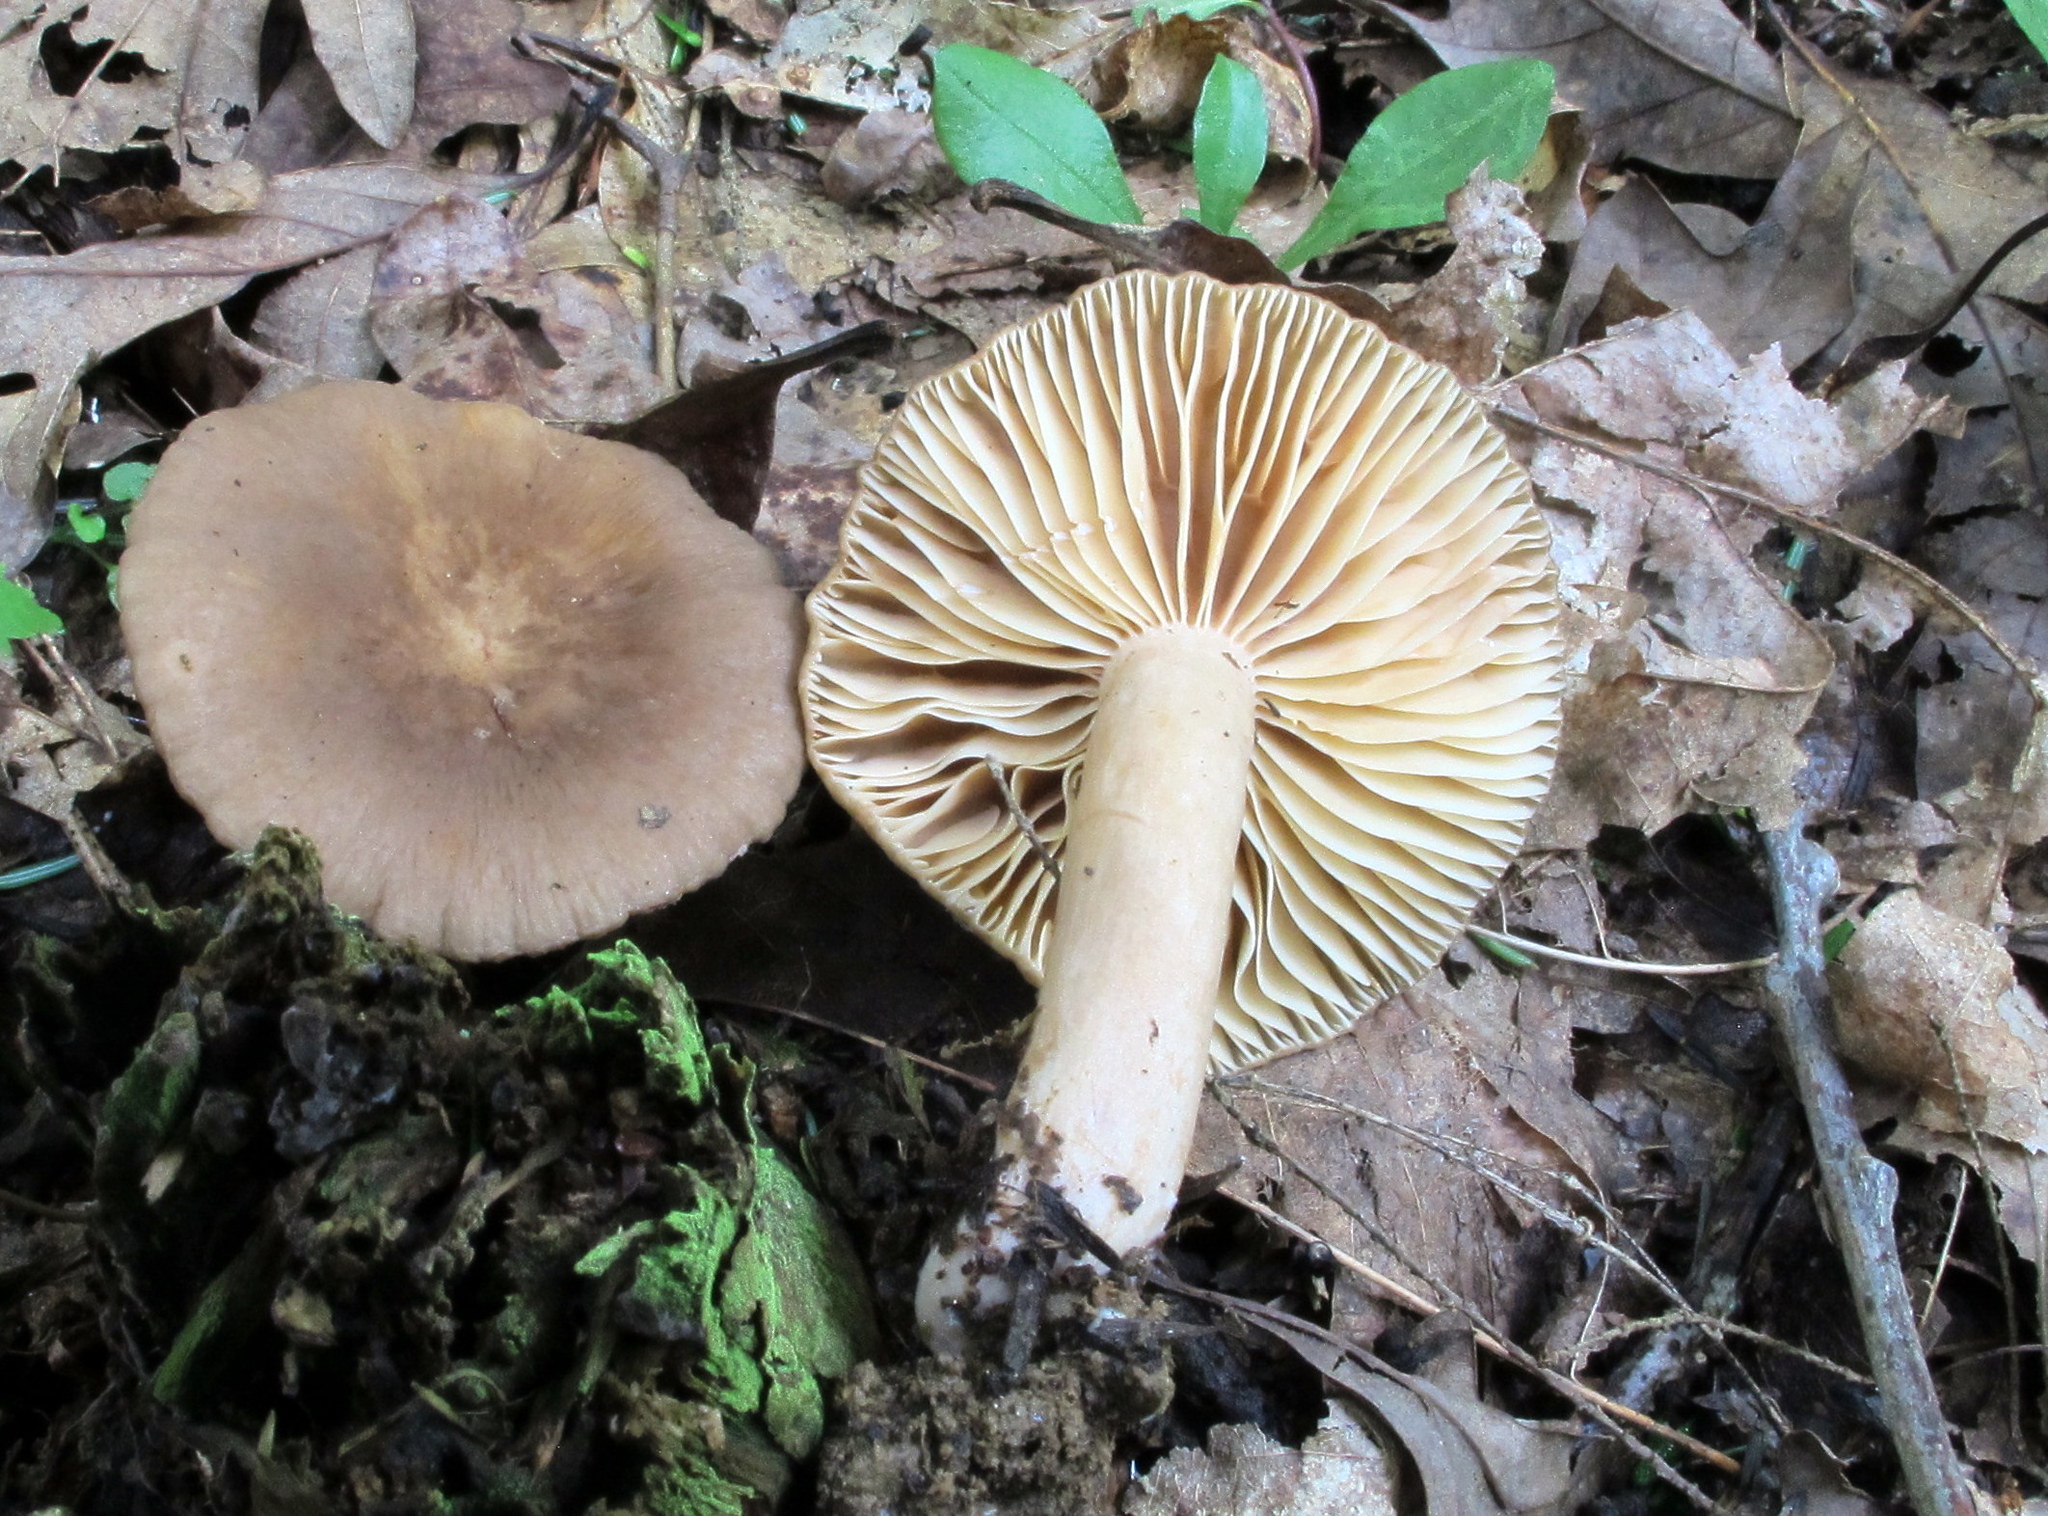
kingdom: Fungi
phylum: Basidiomycota
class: Agaricomycetes
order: Russulales
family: Russulaceae
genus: Lactarius
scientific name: Lactarius subplinthogalus
